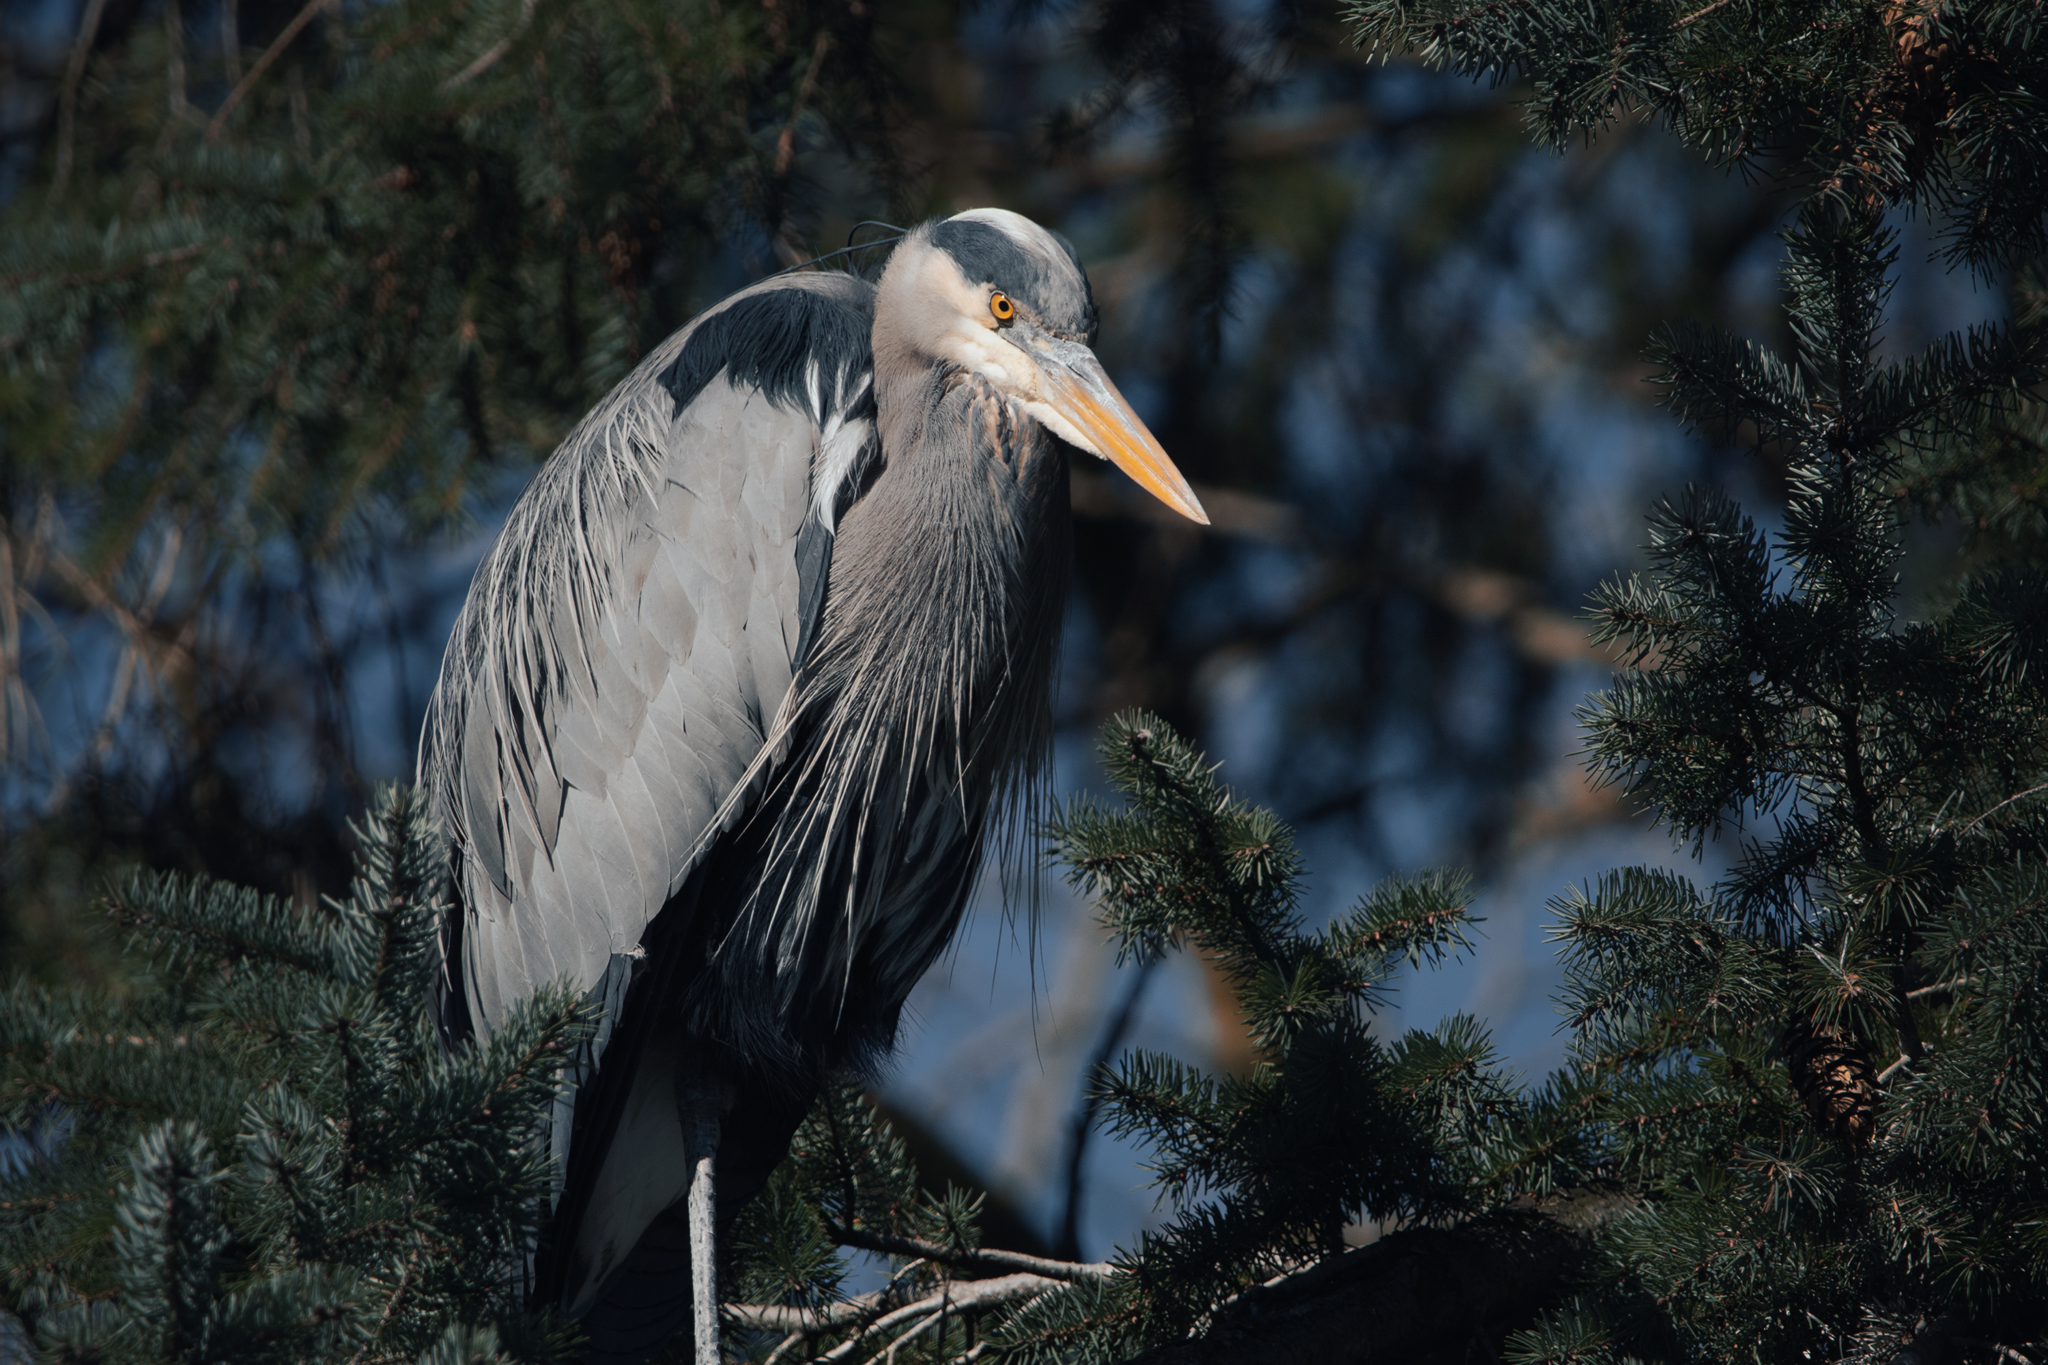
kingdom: Animalia
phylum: Chordata
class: Aves
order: Pelecaniformes
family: Ardeidae
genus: Ardea
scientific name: Ardea herodias
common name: Great blue heron
